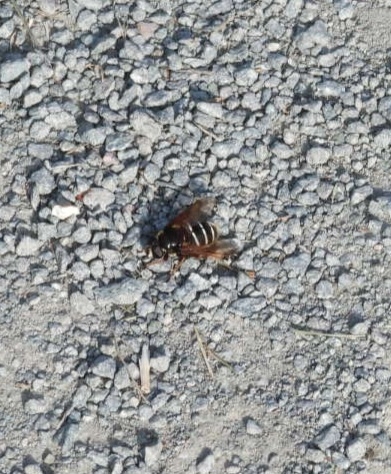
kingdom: Animalia
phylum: Arthropoda
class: Insecta
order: Diptera
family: Syrphidae
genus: Sericomyia
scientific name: Sericomyia lappona
